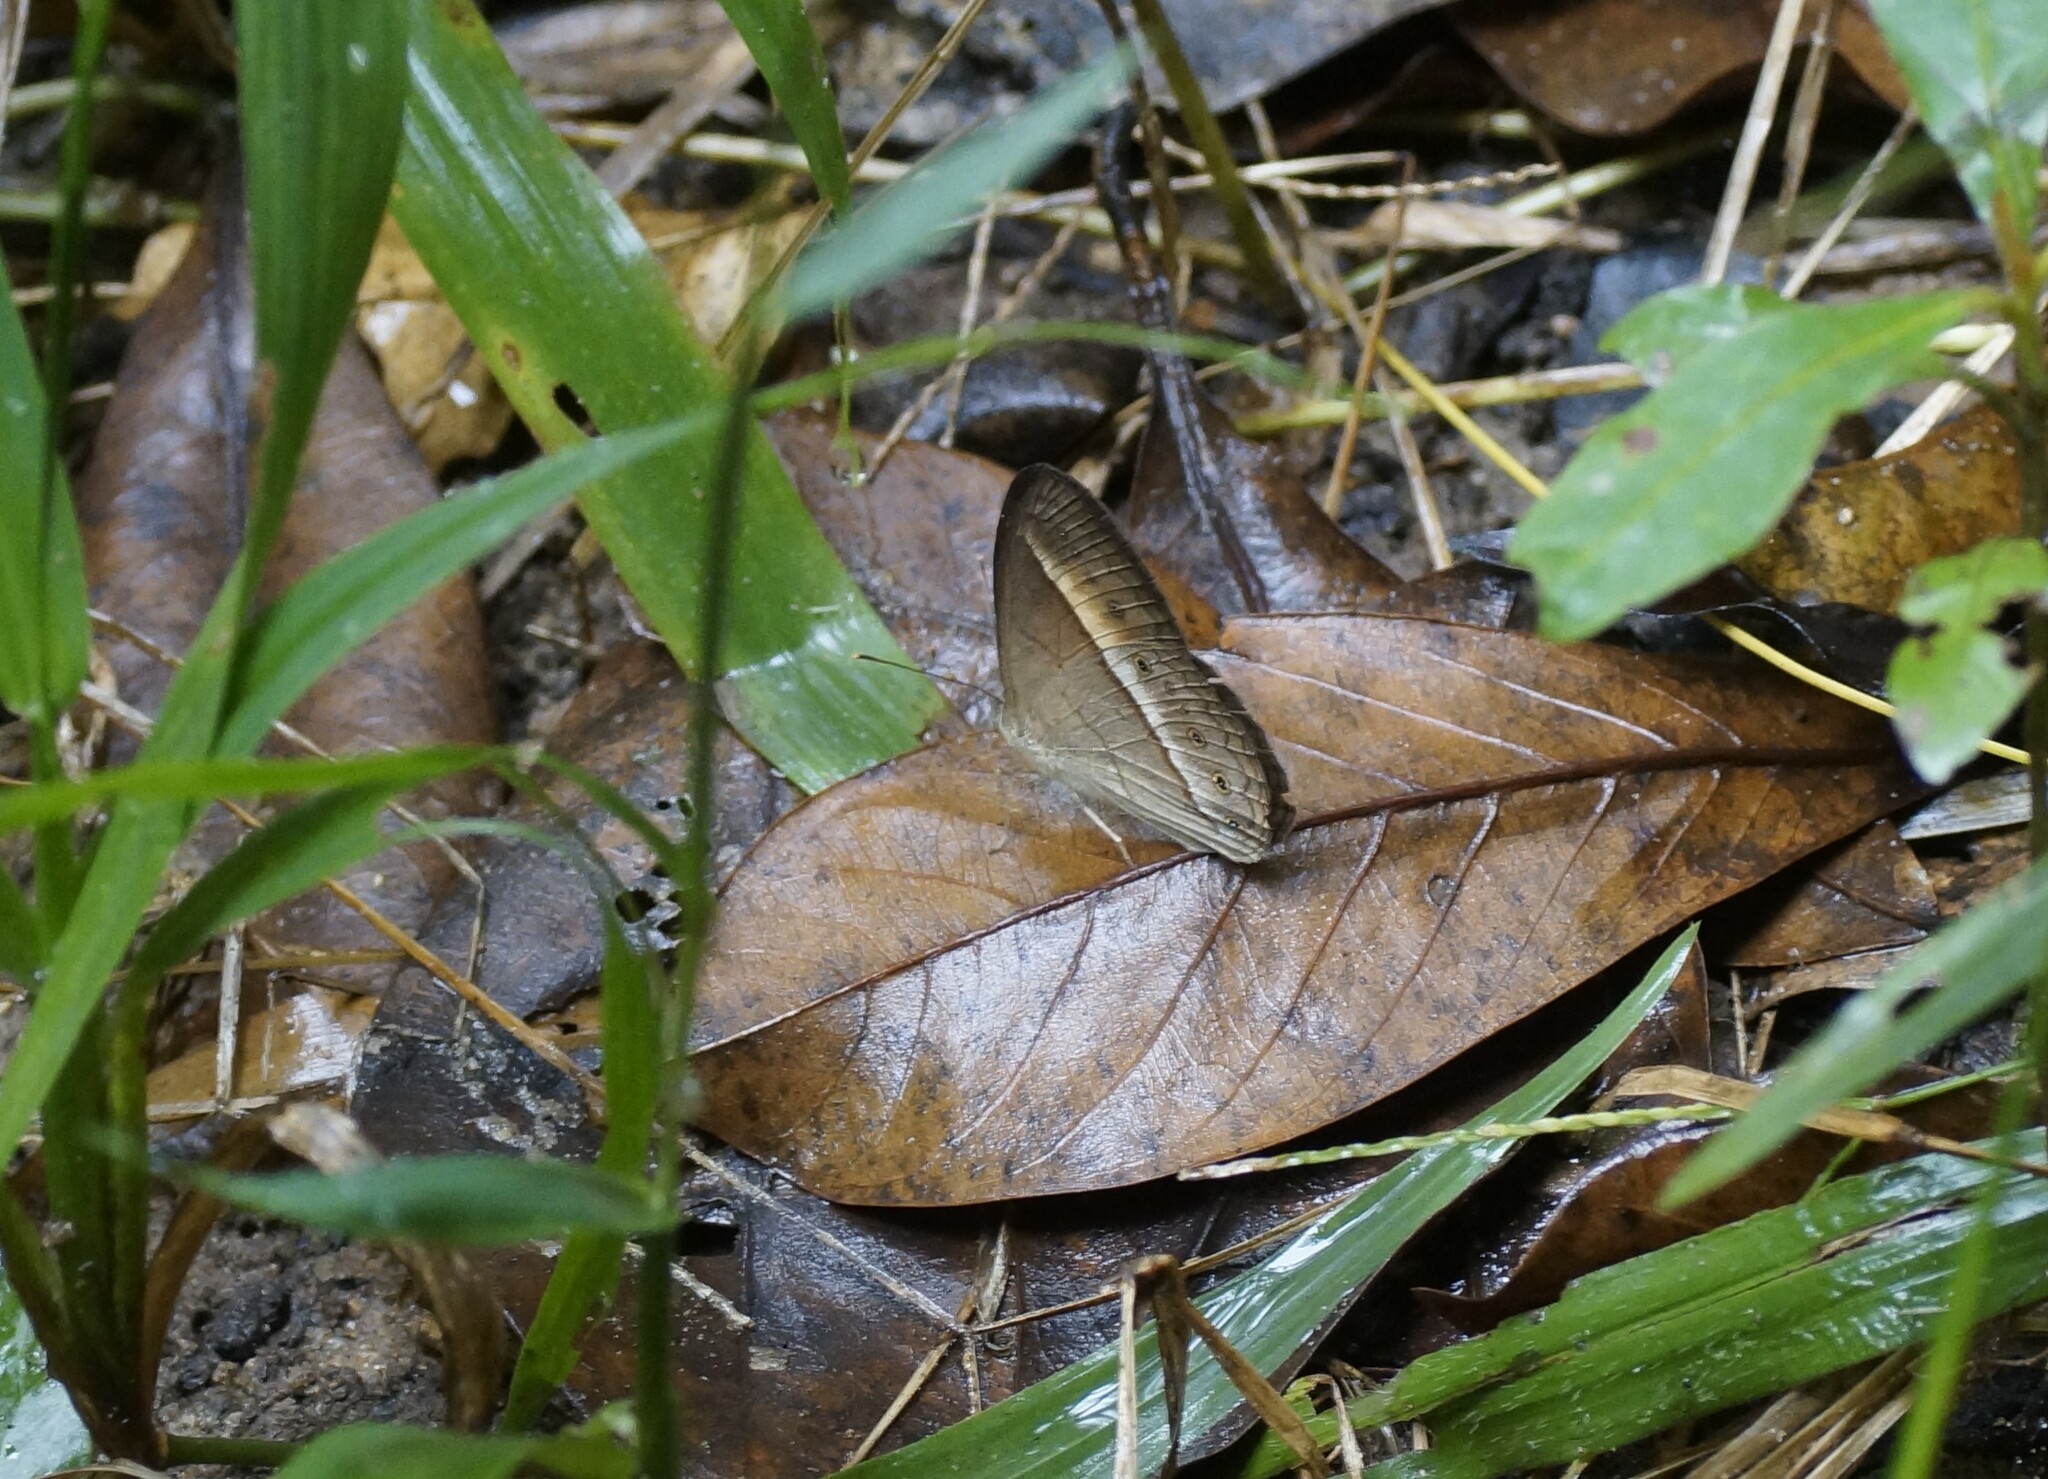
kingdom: Animalia
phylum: Arthropoda
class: Insecta
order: Lepidoptera
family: Nymphalidae
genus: Mycalesis
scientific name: Mycalesis terminus
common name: Orange bushbrown
